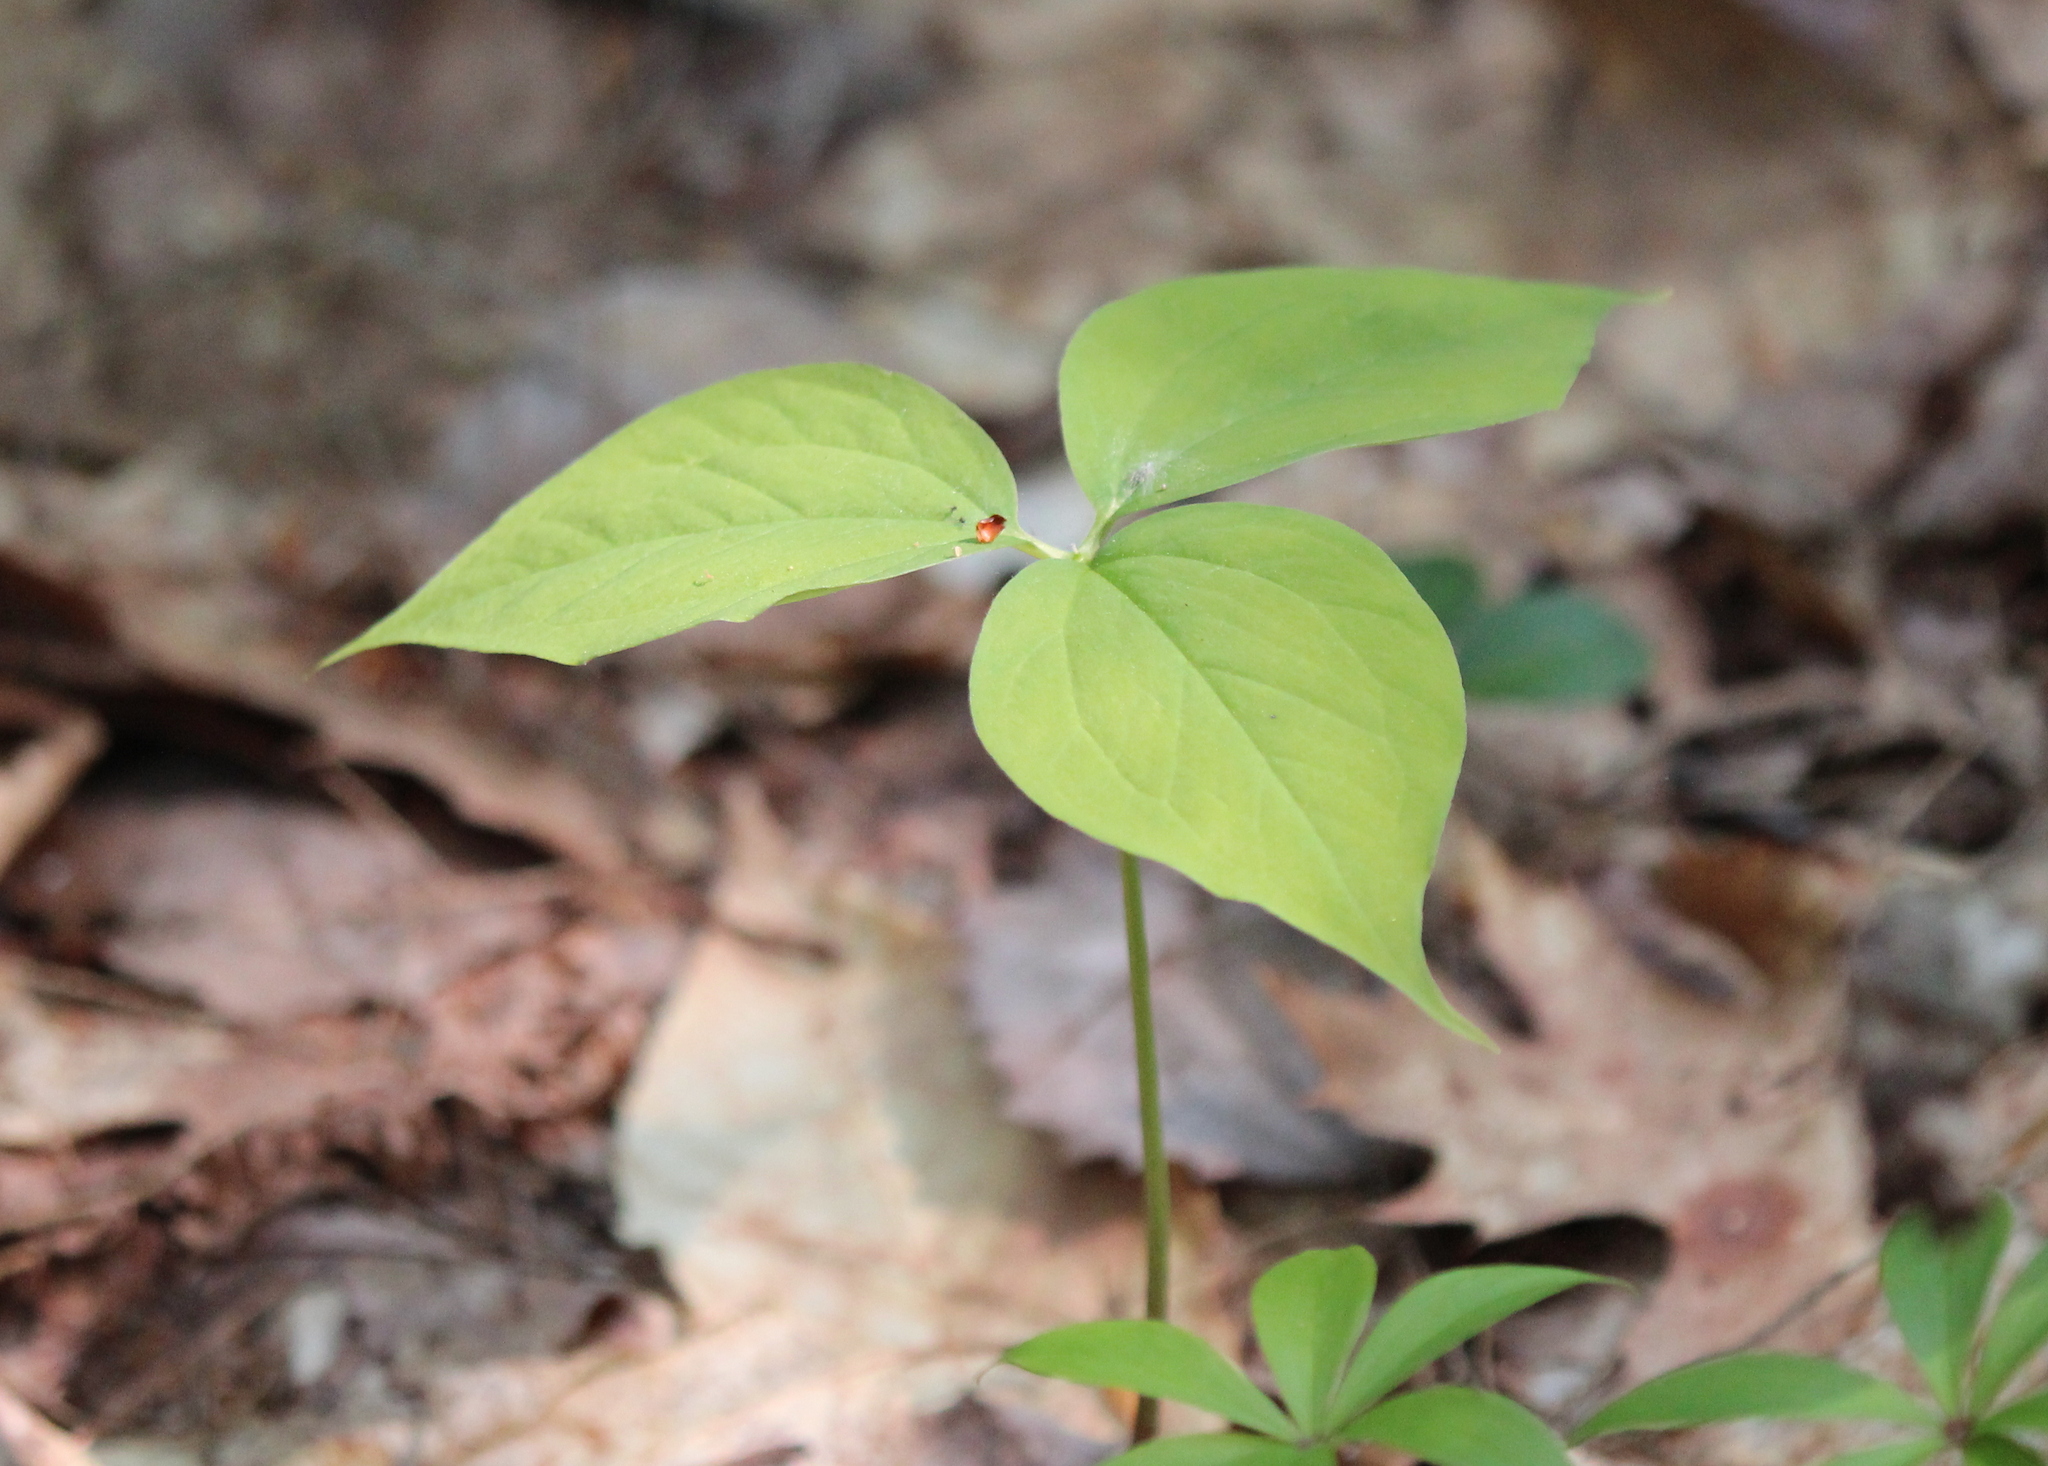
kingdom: Plantae
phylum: Tracheophyta
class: Liliopsida
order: Liliales
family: Melanthiaceae
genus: Trillium
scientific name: Trillium undulatum
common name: Paint trillium
